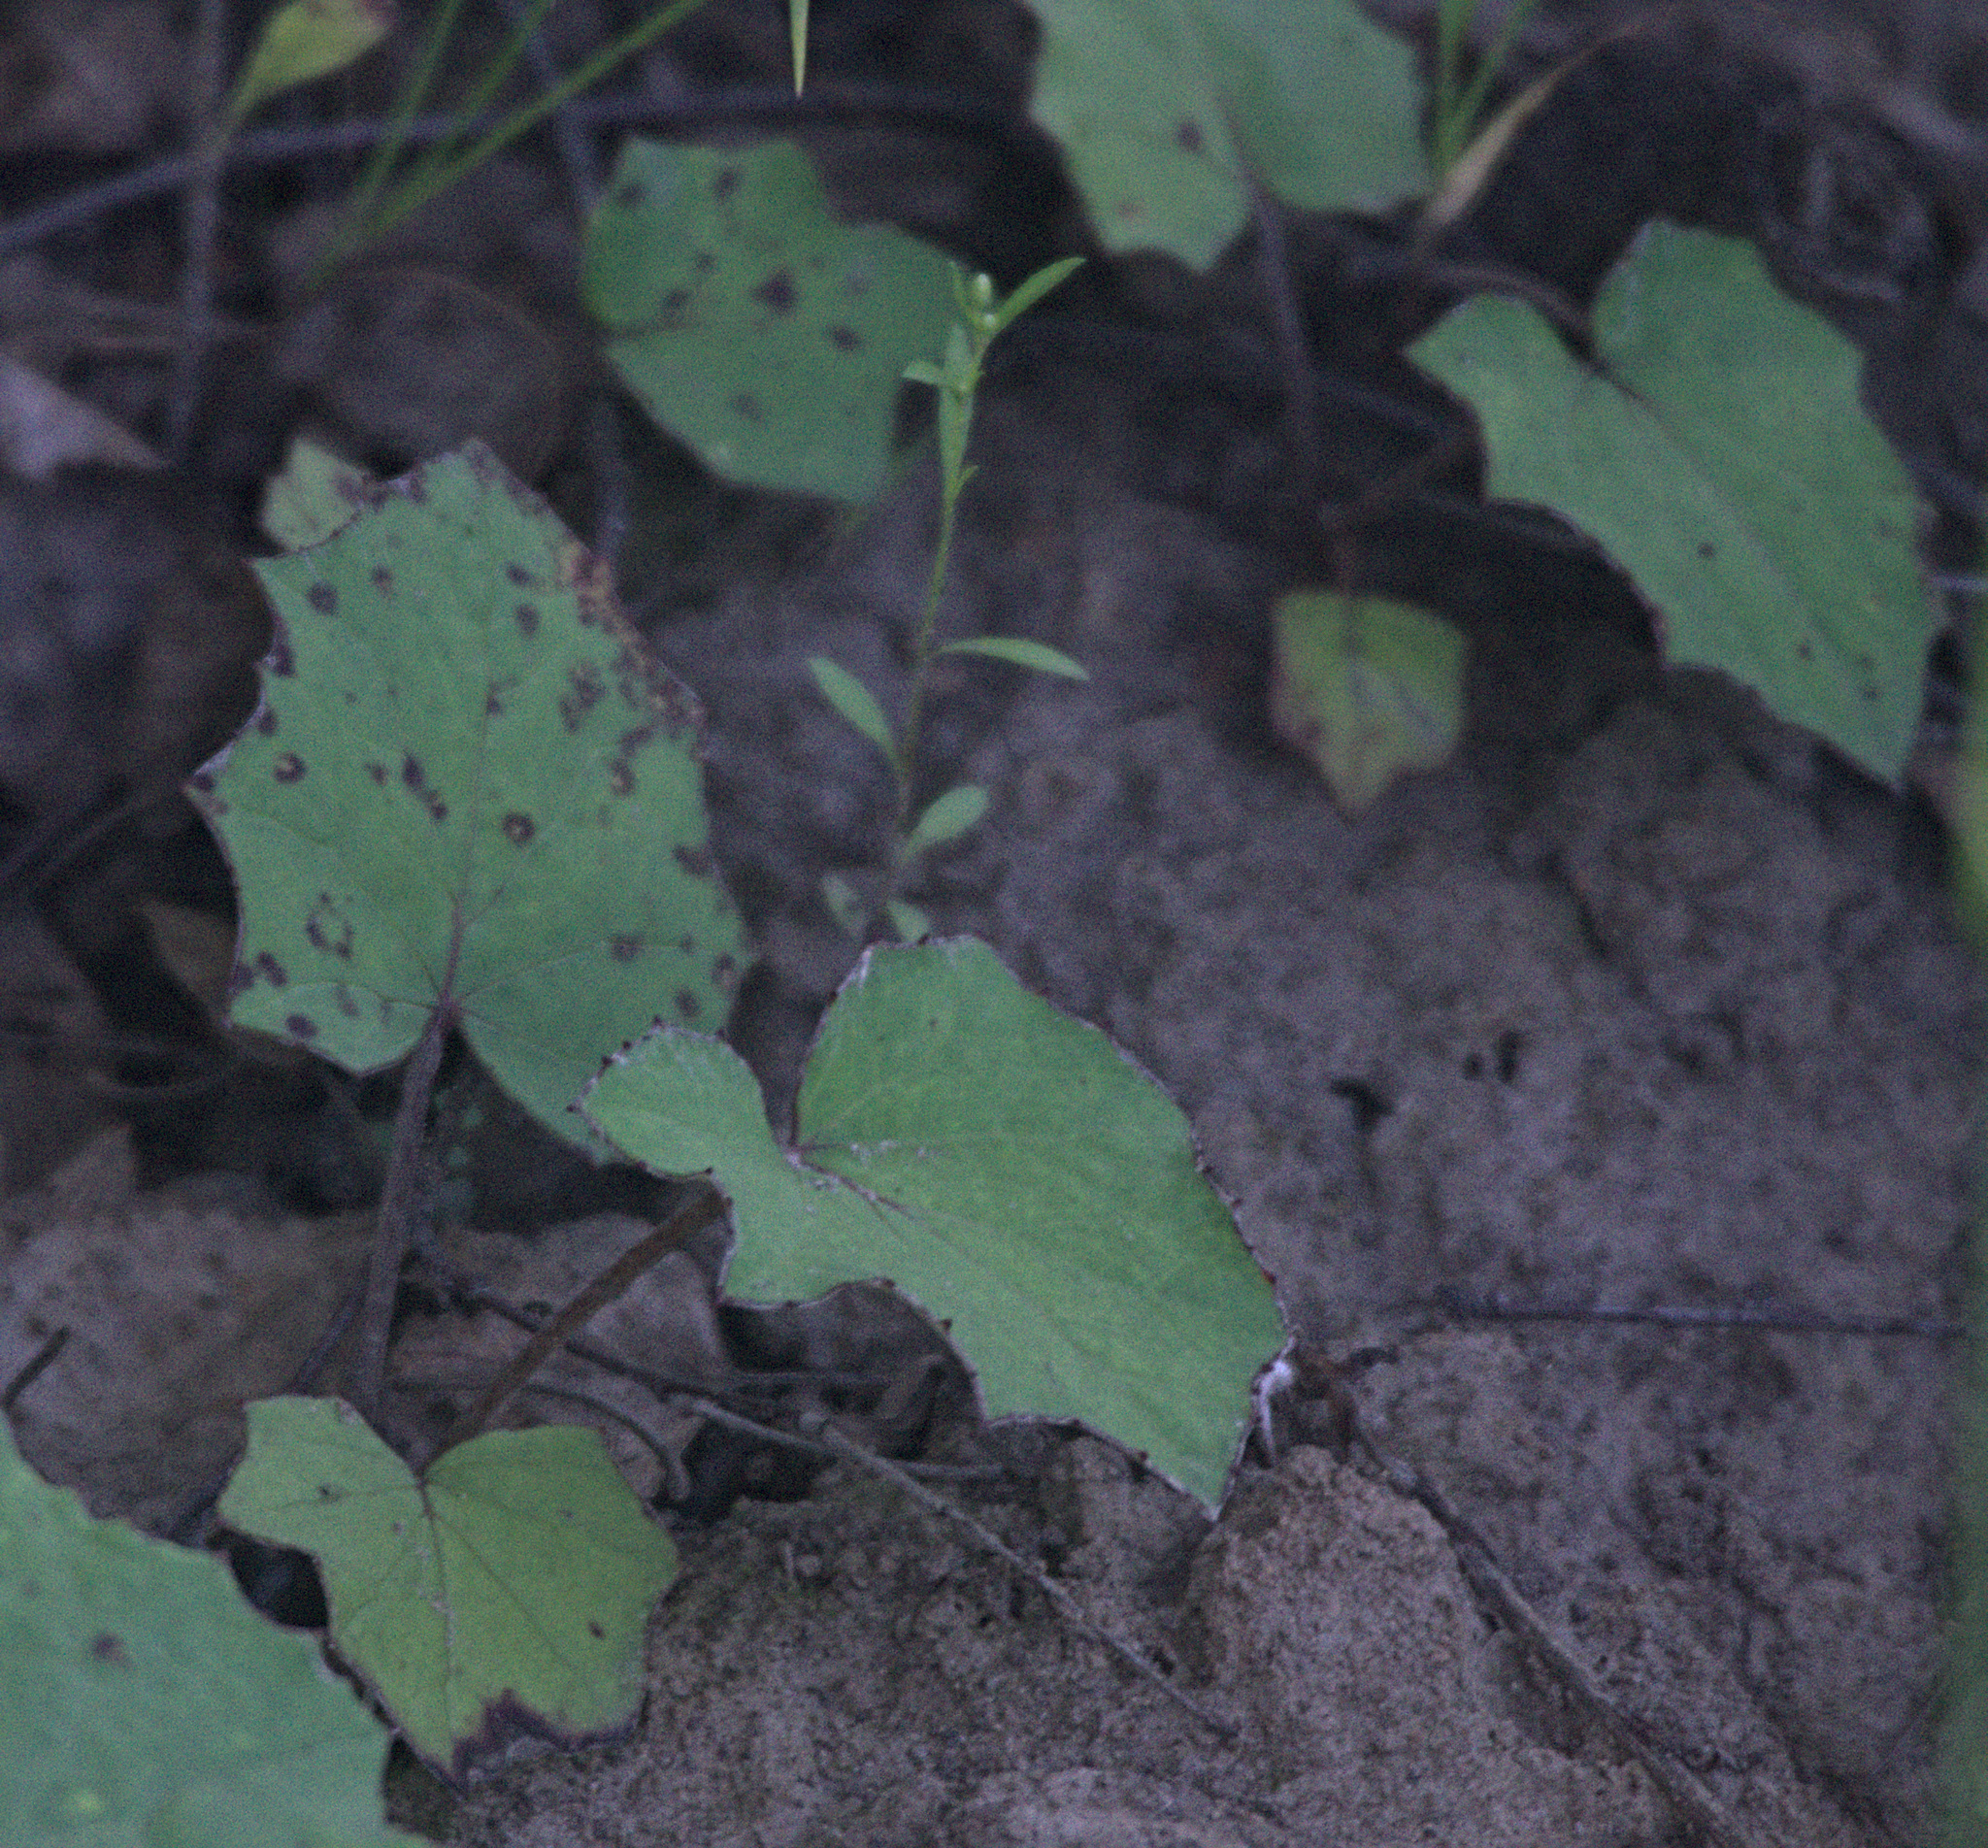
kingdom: Plantae
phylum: Tracheophyta
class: Magnoliopsida
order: Asterales
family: Asteraceae
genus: Tussilago
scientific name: Tussilago farfara
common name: Coltsfoot
